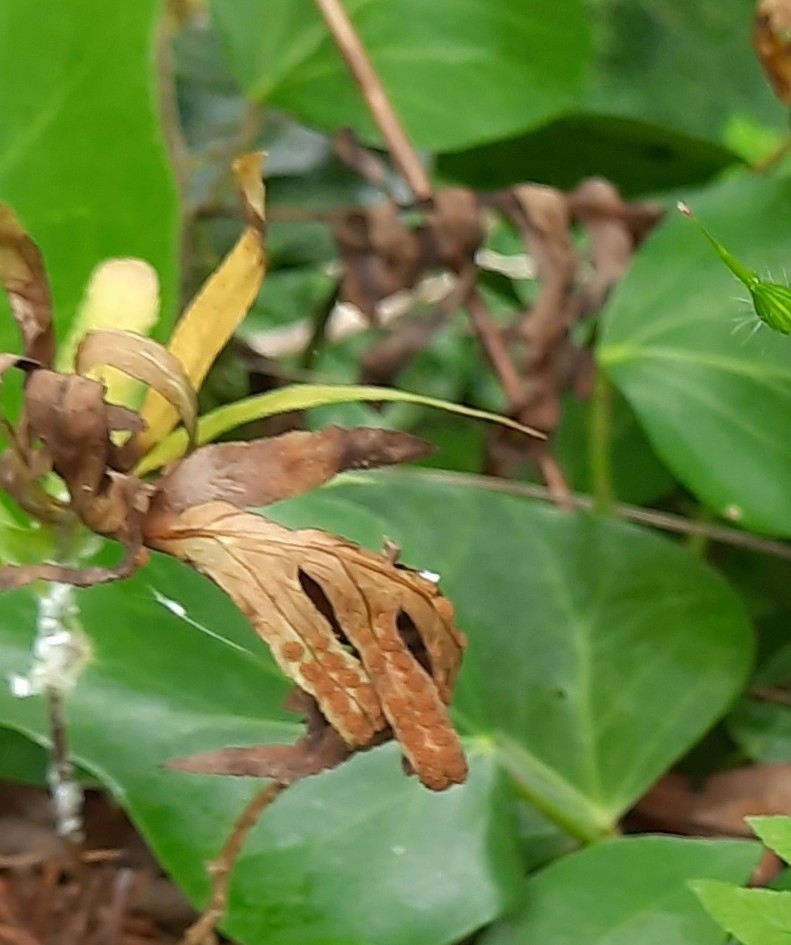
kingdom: Plantae
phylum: Tracheophyta
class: Polypodiopsida
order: Polypodiales
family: Polypodiaceae
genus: Polypodium
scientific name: Polypodium cambricum
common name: Southern polypody
